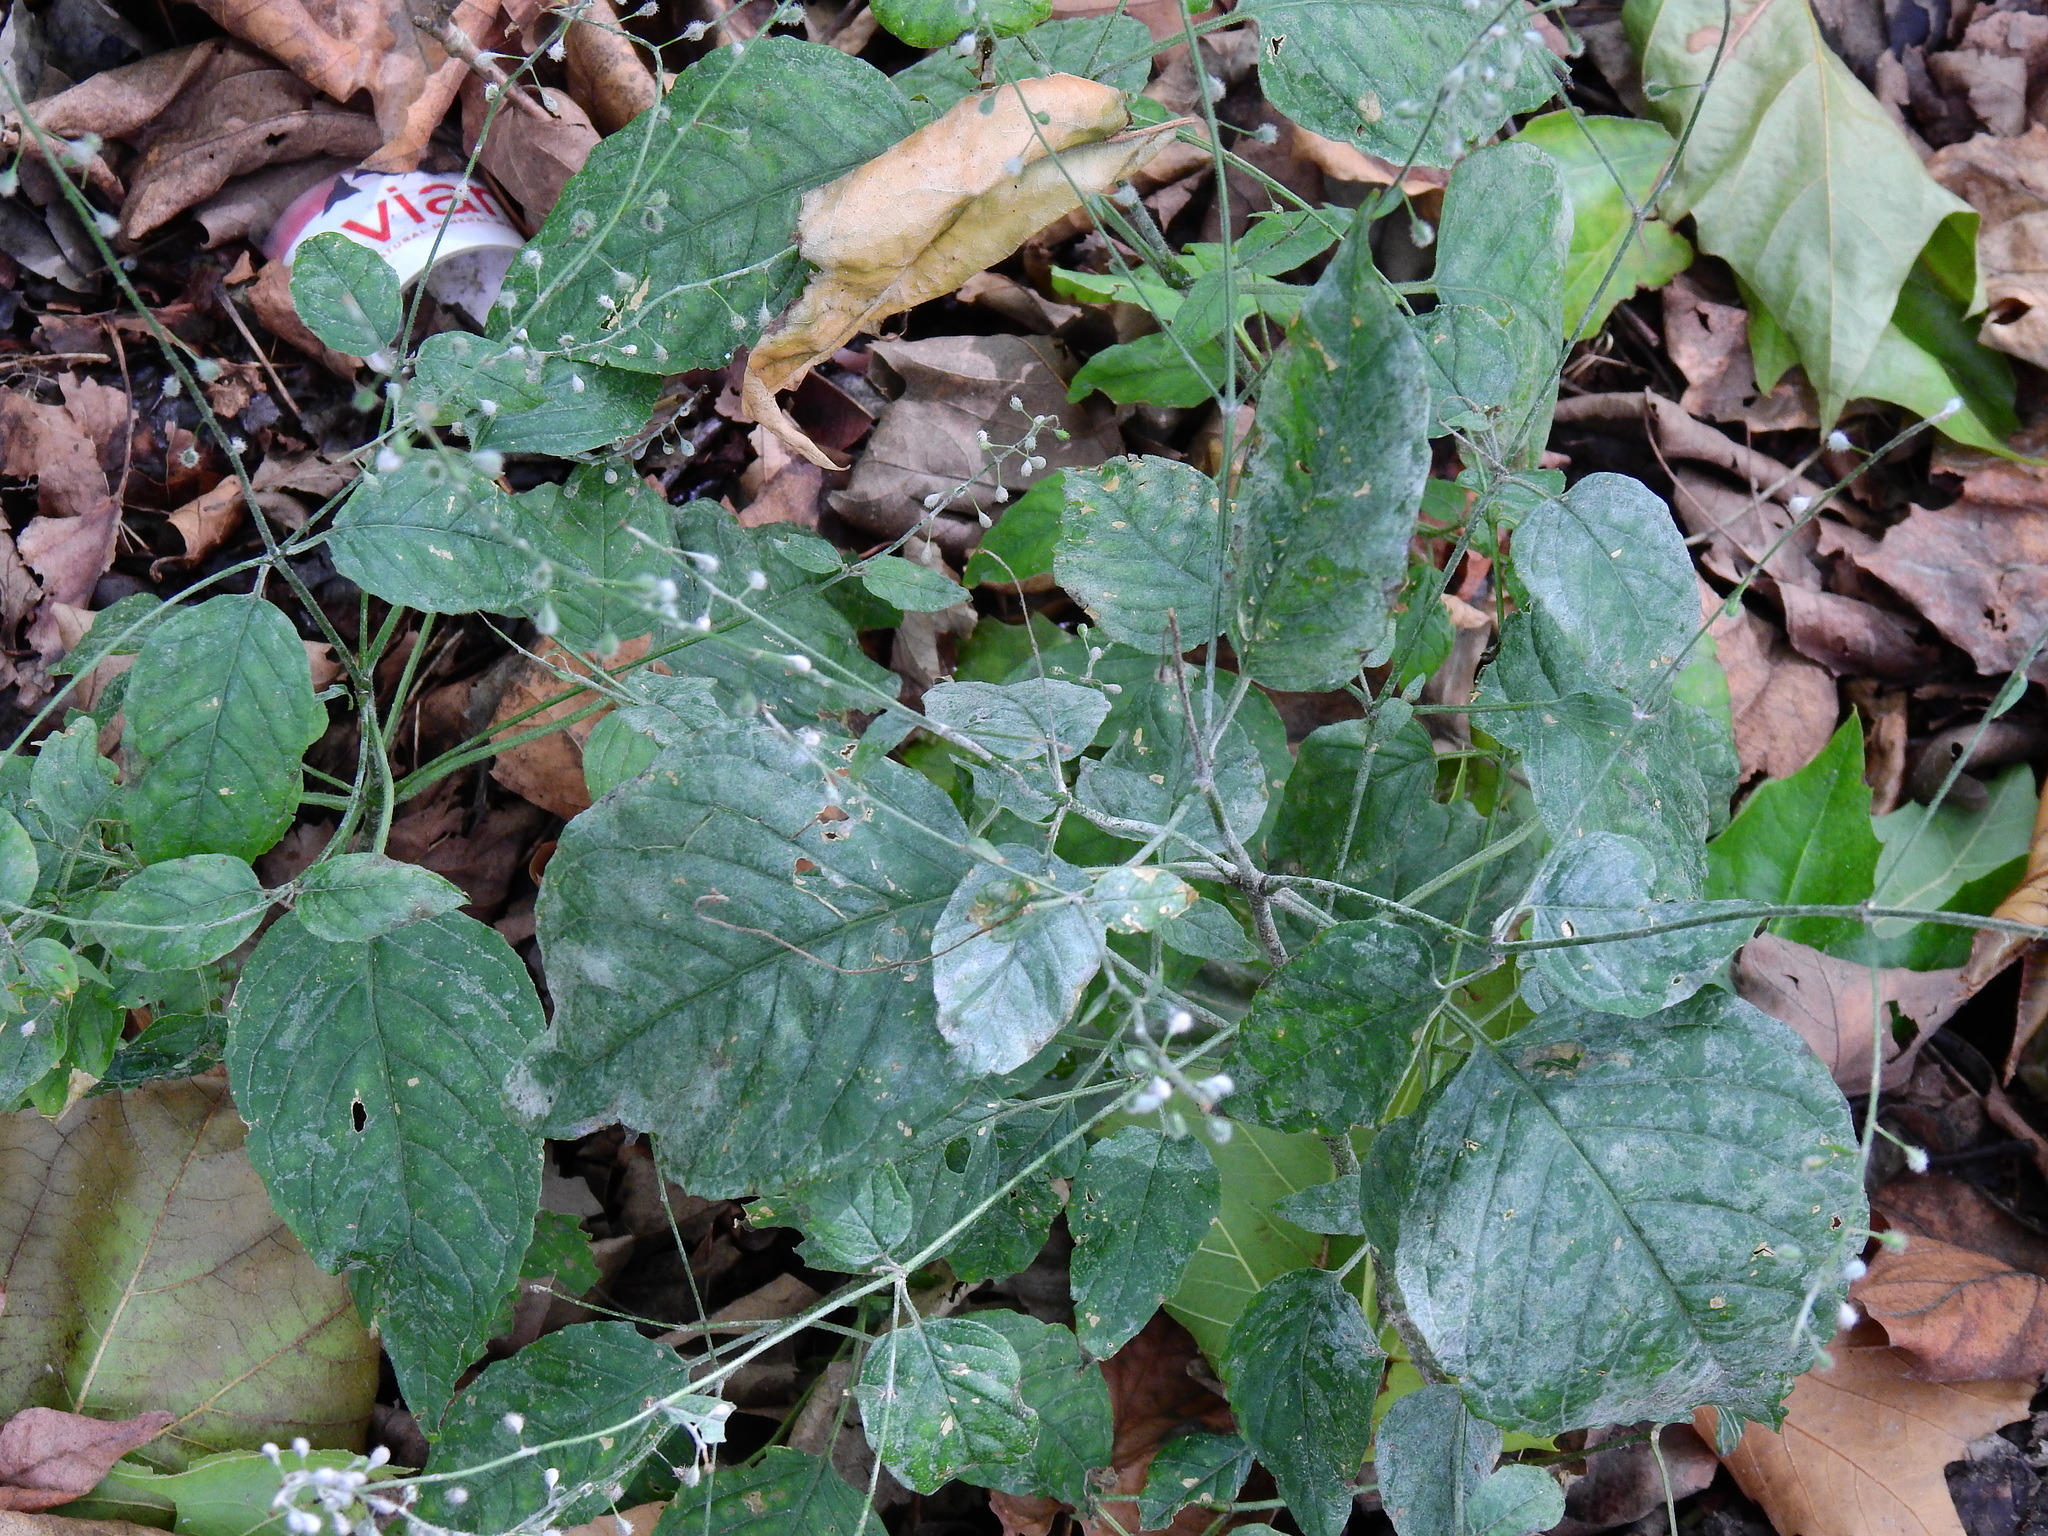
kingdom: Plantae
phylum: Tracheophyta
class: Magnoliopsida
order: Myrtales
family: Onagraceae
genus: Circaea
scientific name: Circaea lutetiana
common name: Enchanter's-nightshade
